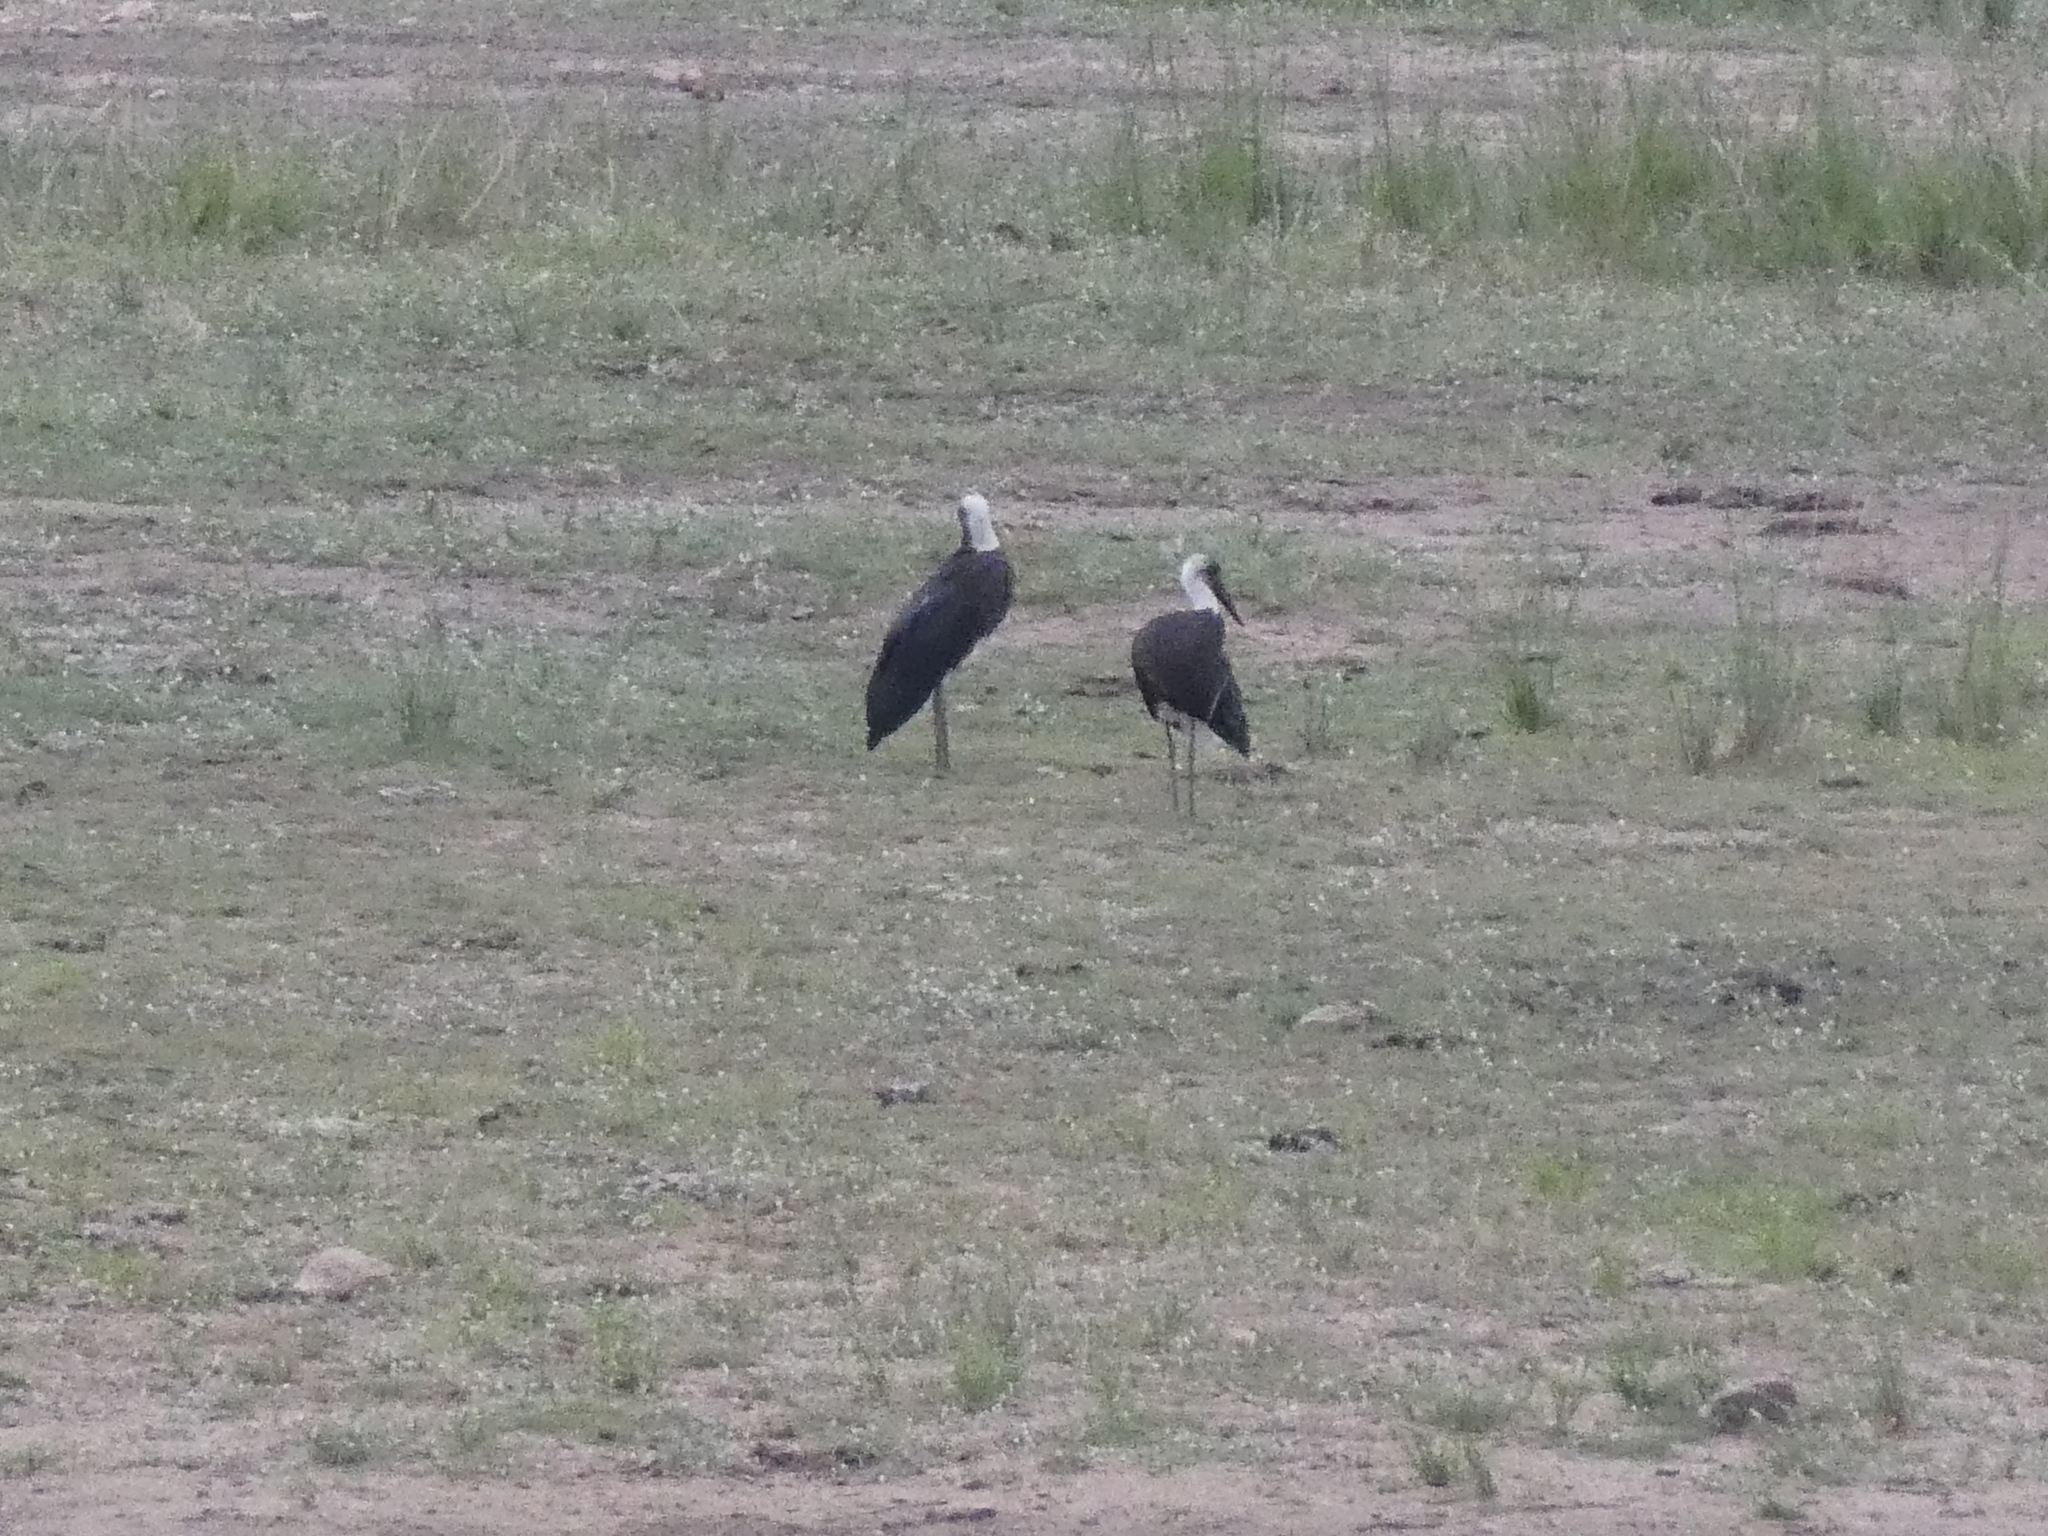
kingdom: Animalia
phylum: Chordata
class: Aves
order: Ciconiiformes
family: Ciconiidae
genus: Ciconia
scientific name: Ciconia microscelis
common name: African woollyneck
